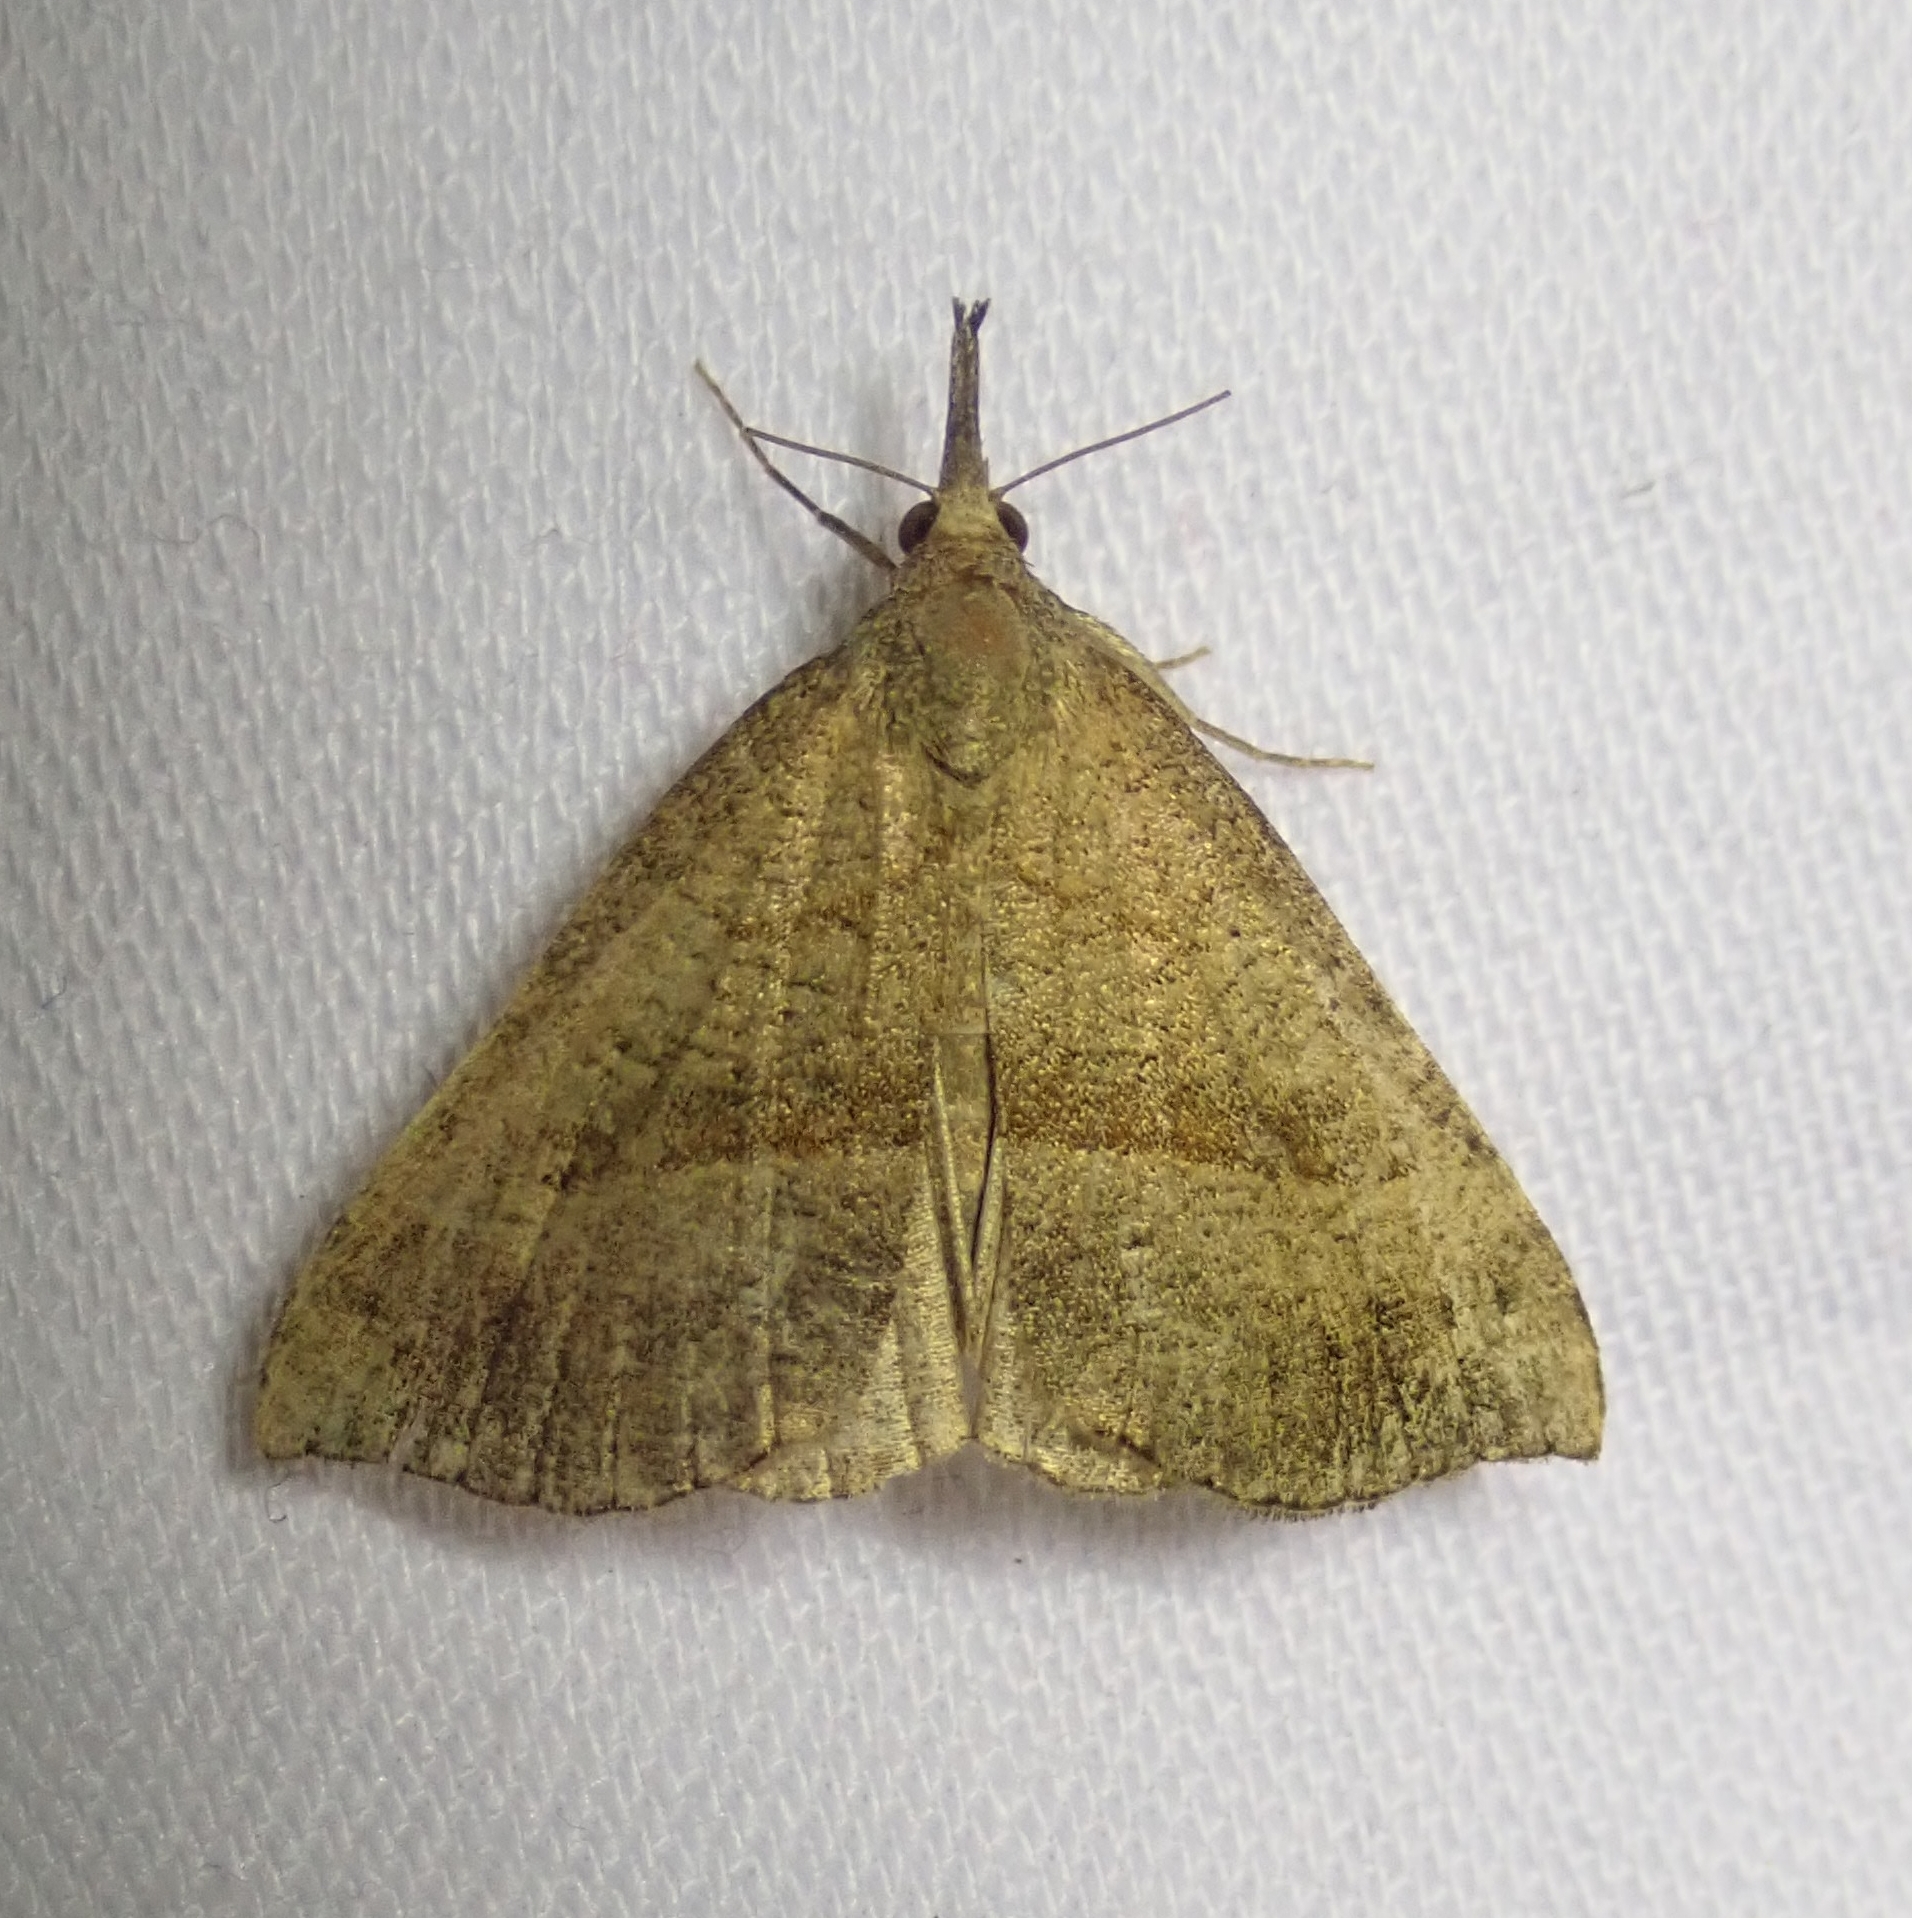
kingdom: Animalia
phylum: Arthropoda
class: Insecta
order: Lepidoptera
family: Erebidae
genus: Hypena
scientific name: Hypena proboscidalis
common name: Snout
